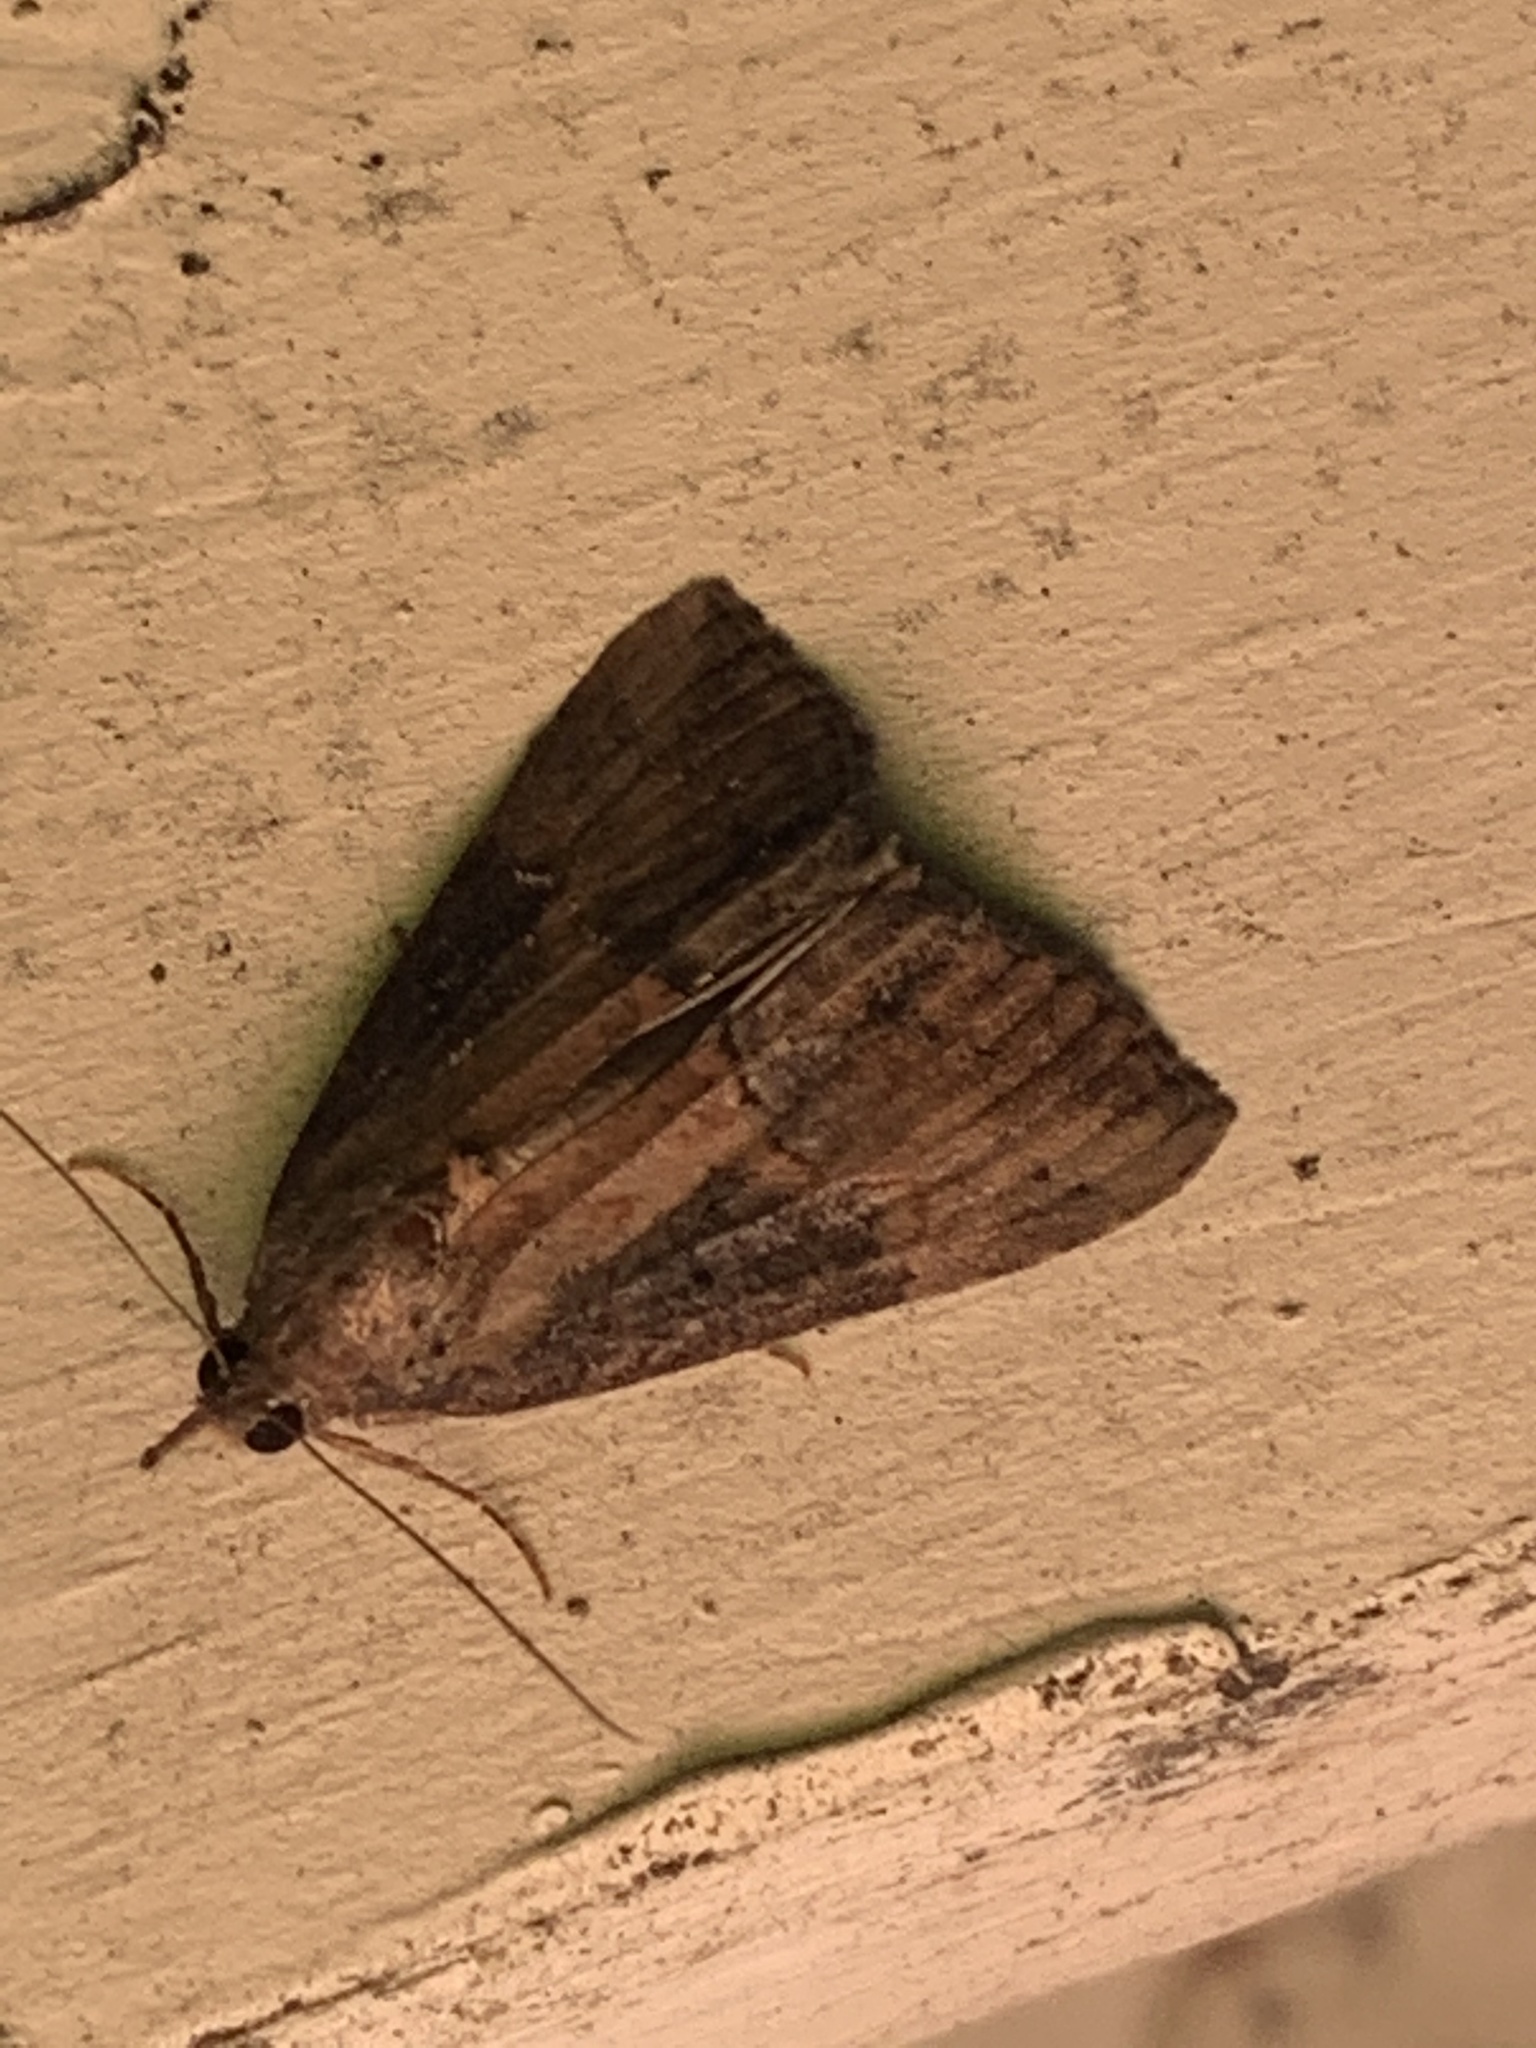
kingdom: Animalia
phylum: Arthropoda
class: Insecta
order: Lepidoptera
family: Erebidae
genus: Hypena
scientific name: Hypena scabra
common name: Green cloverworm
